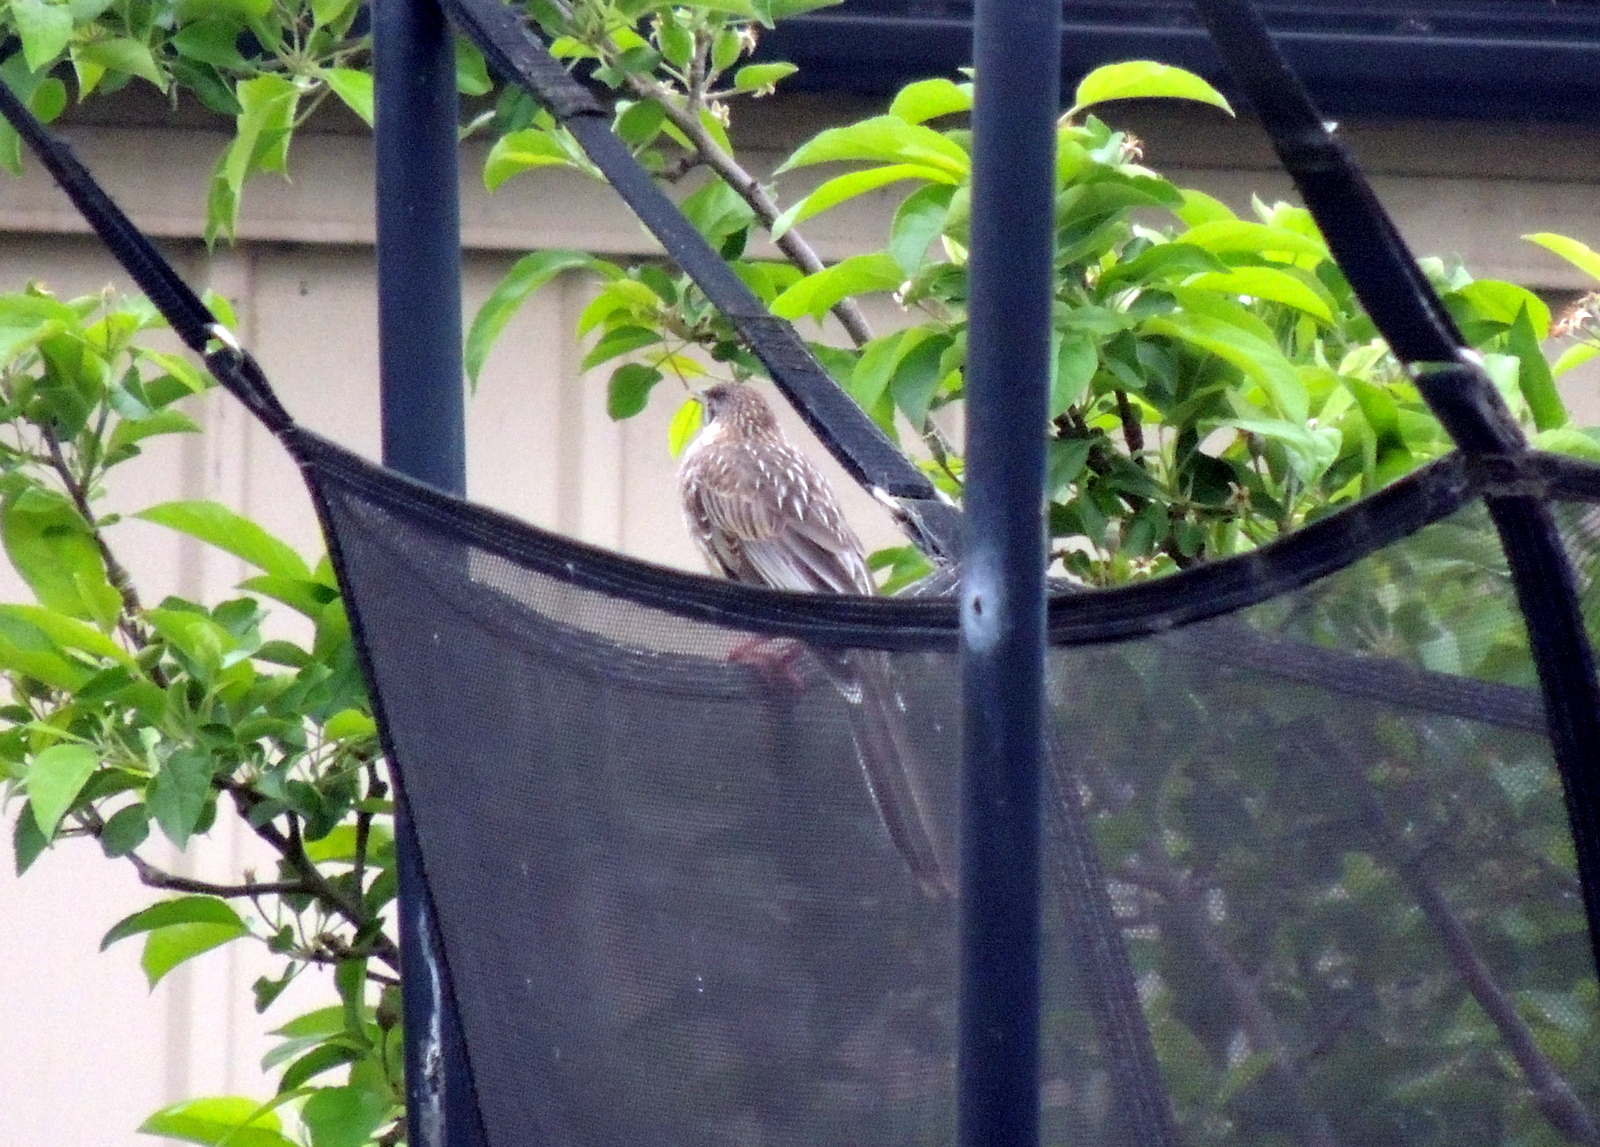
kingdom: Animalia
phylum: Chordata
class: Aves
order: Passeriformes
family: Meliphagidae
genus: Anthochaera
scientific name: Anthochaera carunculata
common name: Red wattlebird
